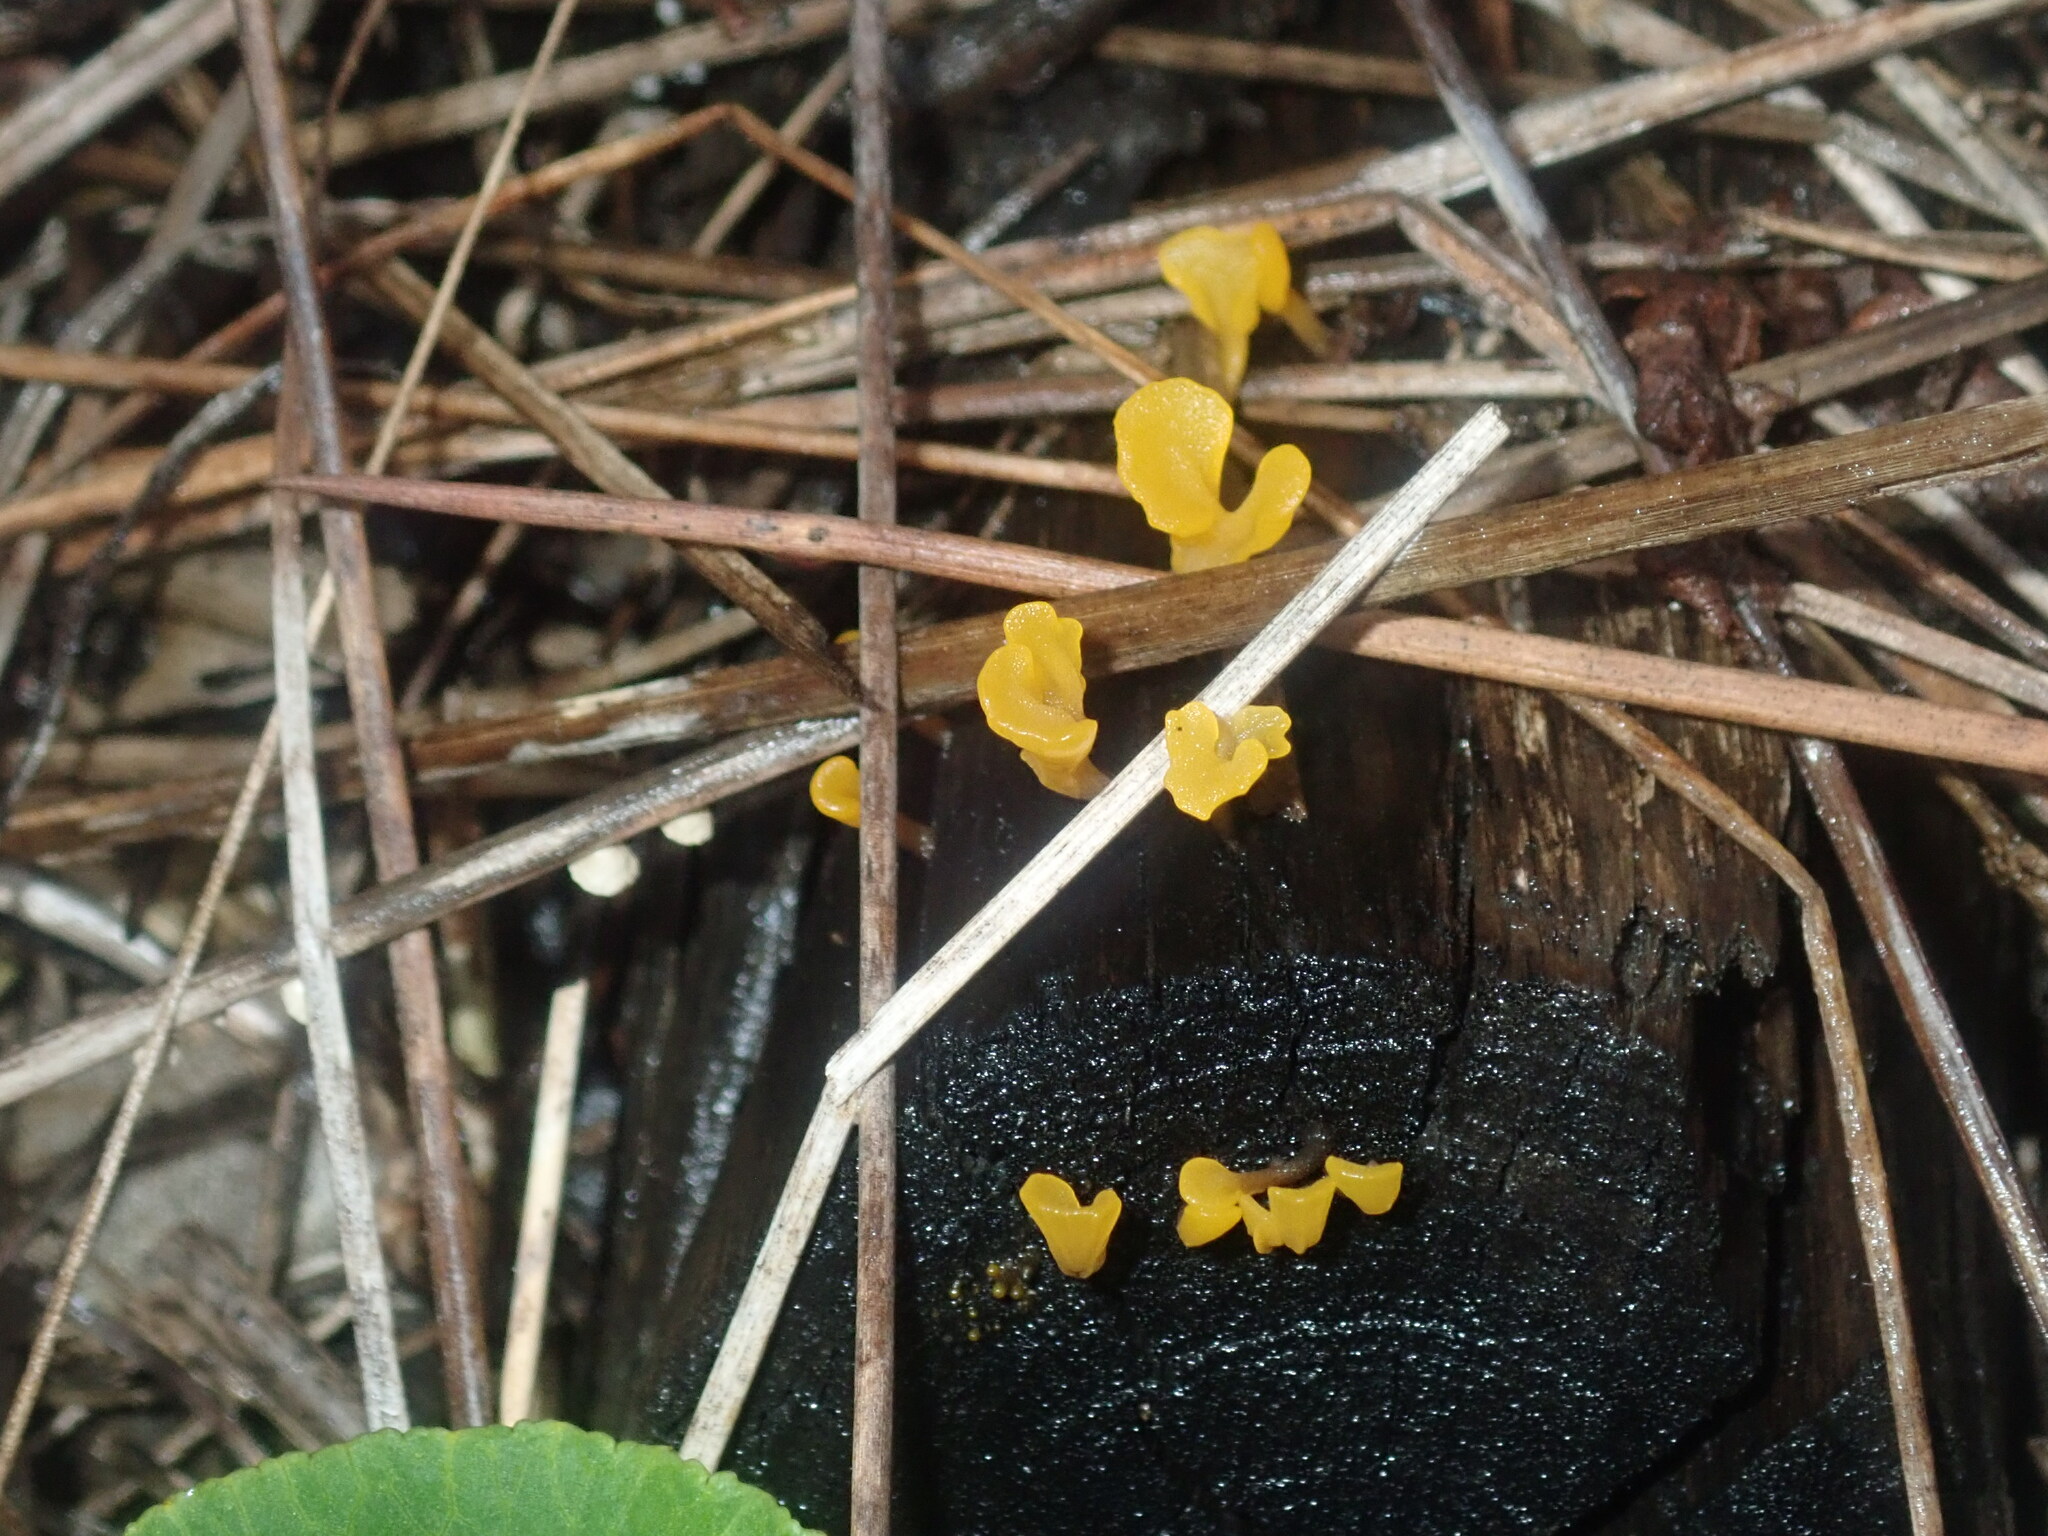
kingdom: Fungi
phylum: Basidiomycota
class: Dacrymycetes
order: Dacrymycetales
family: Dacrymycetaceae
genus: Dacrymyces
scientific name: Dacrymyces spathularius
